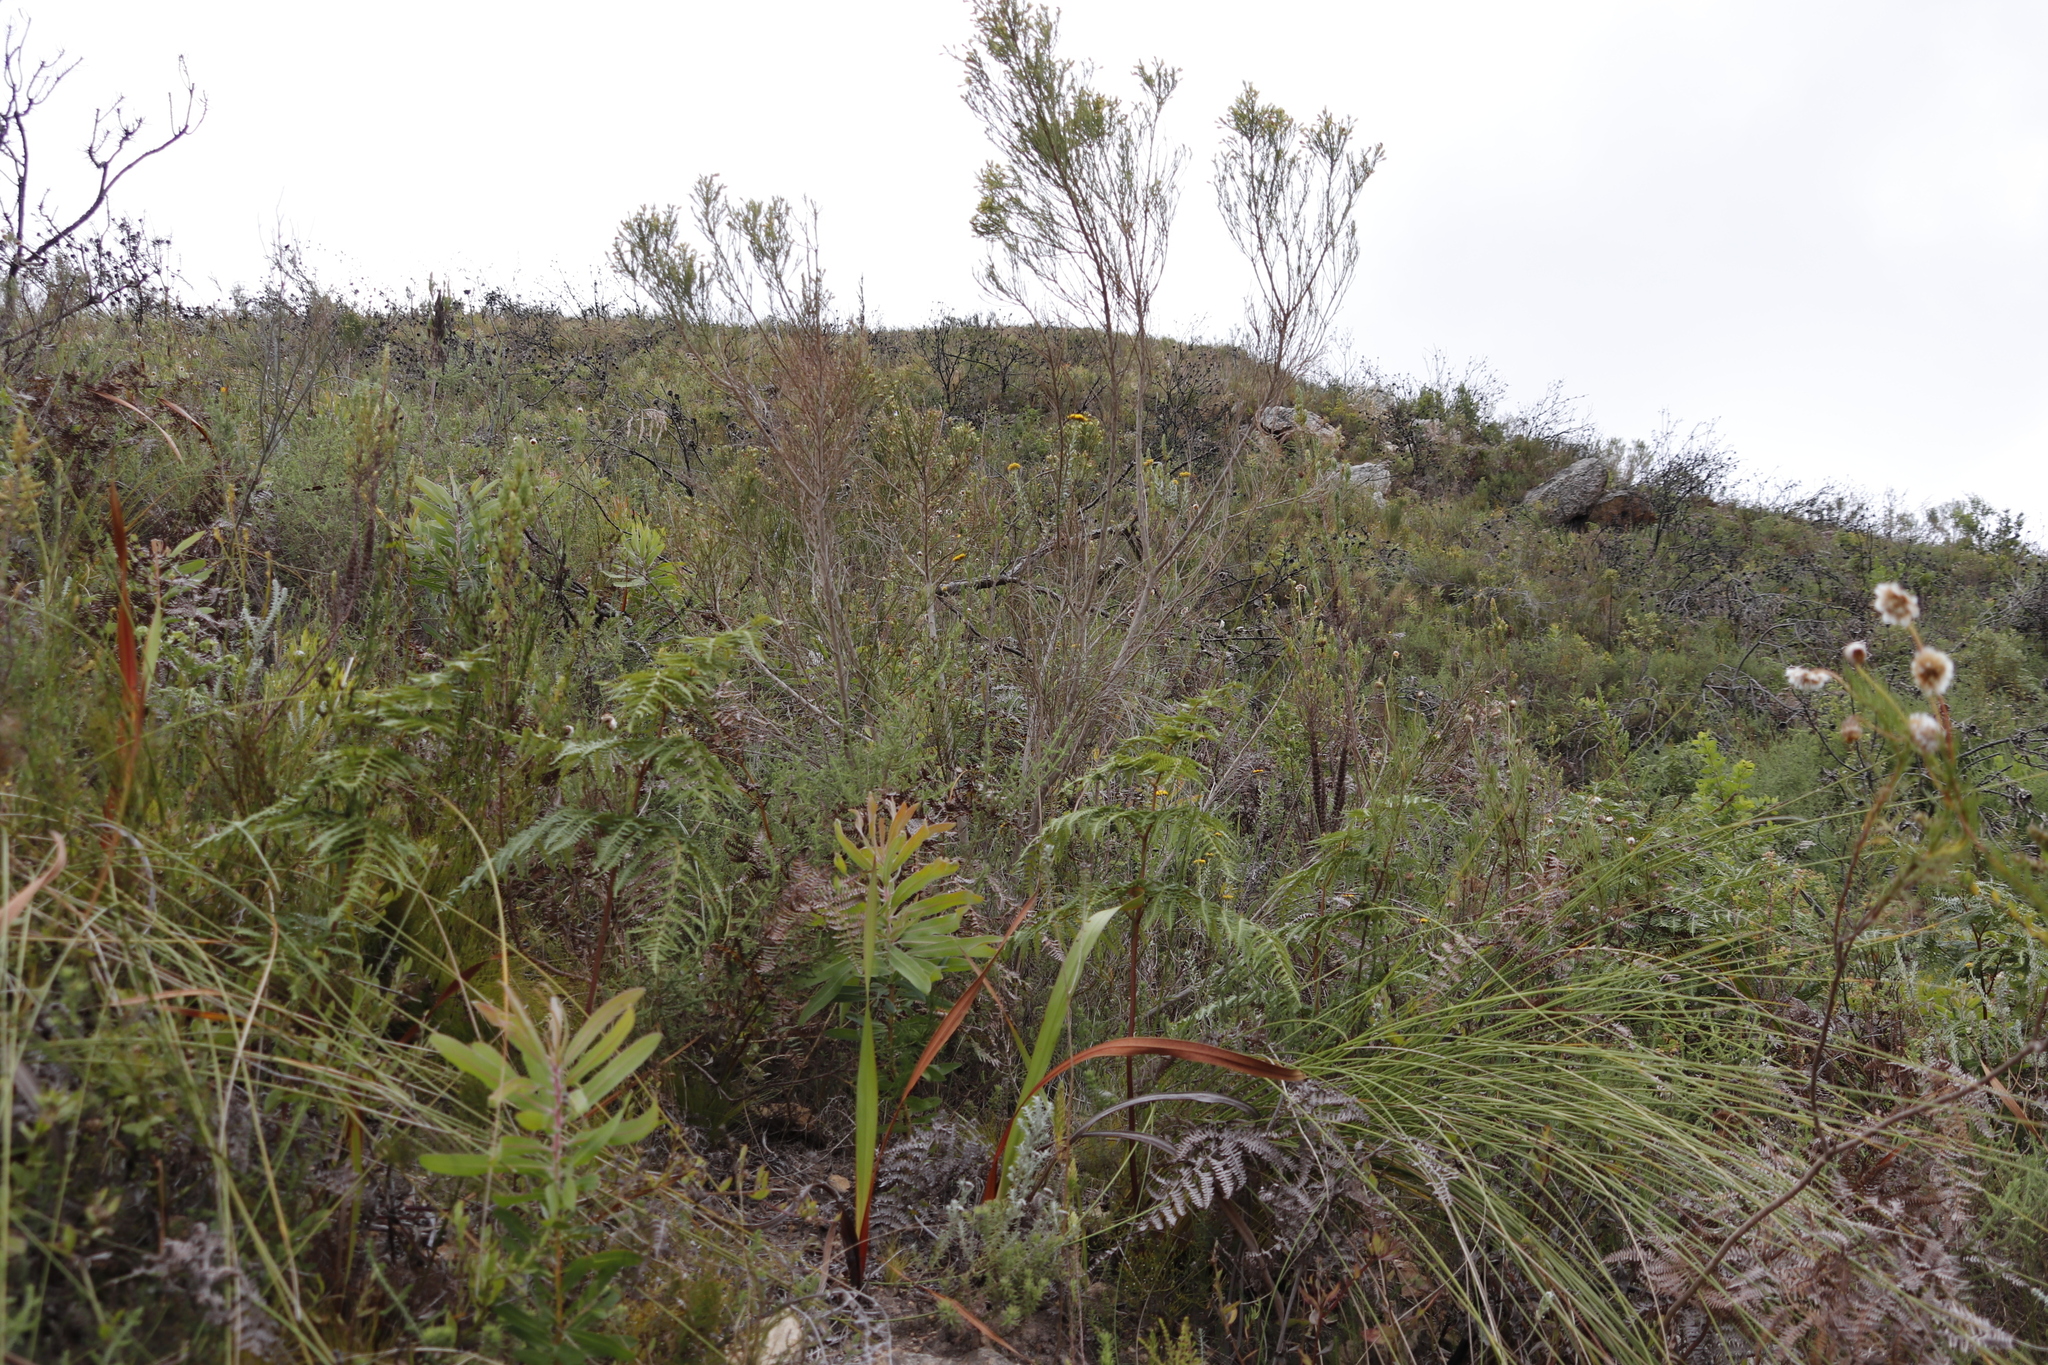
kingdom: Plantae
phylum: Tracheophyta
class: Magnoliopsida
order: Proteales
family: Proteaceae
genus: Protea
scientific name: Protea neriifolia
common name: Blue sugarbush
